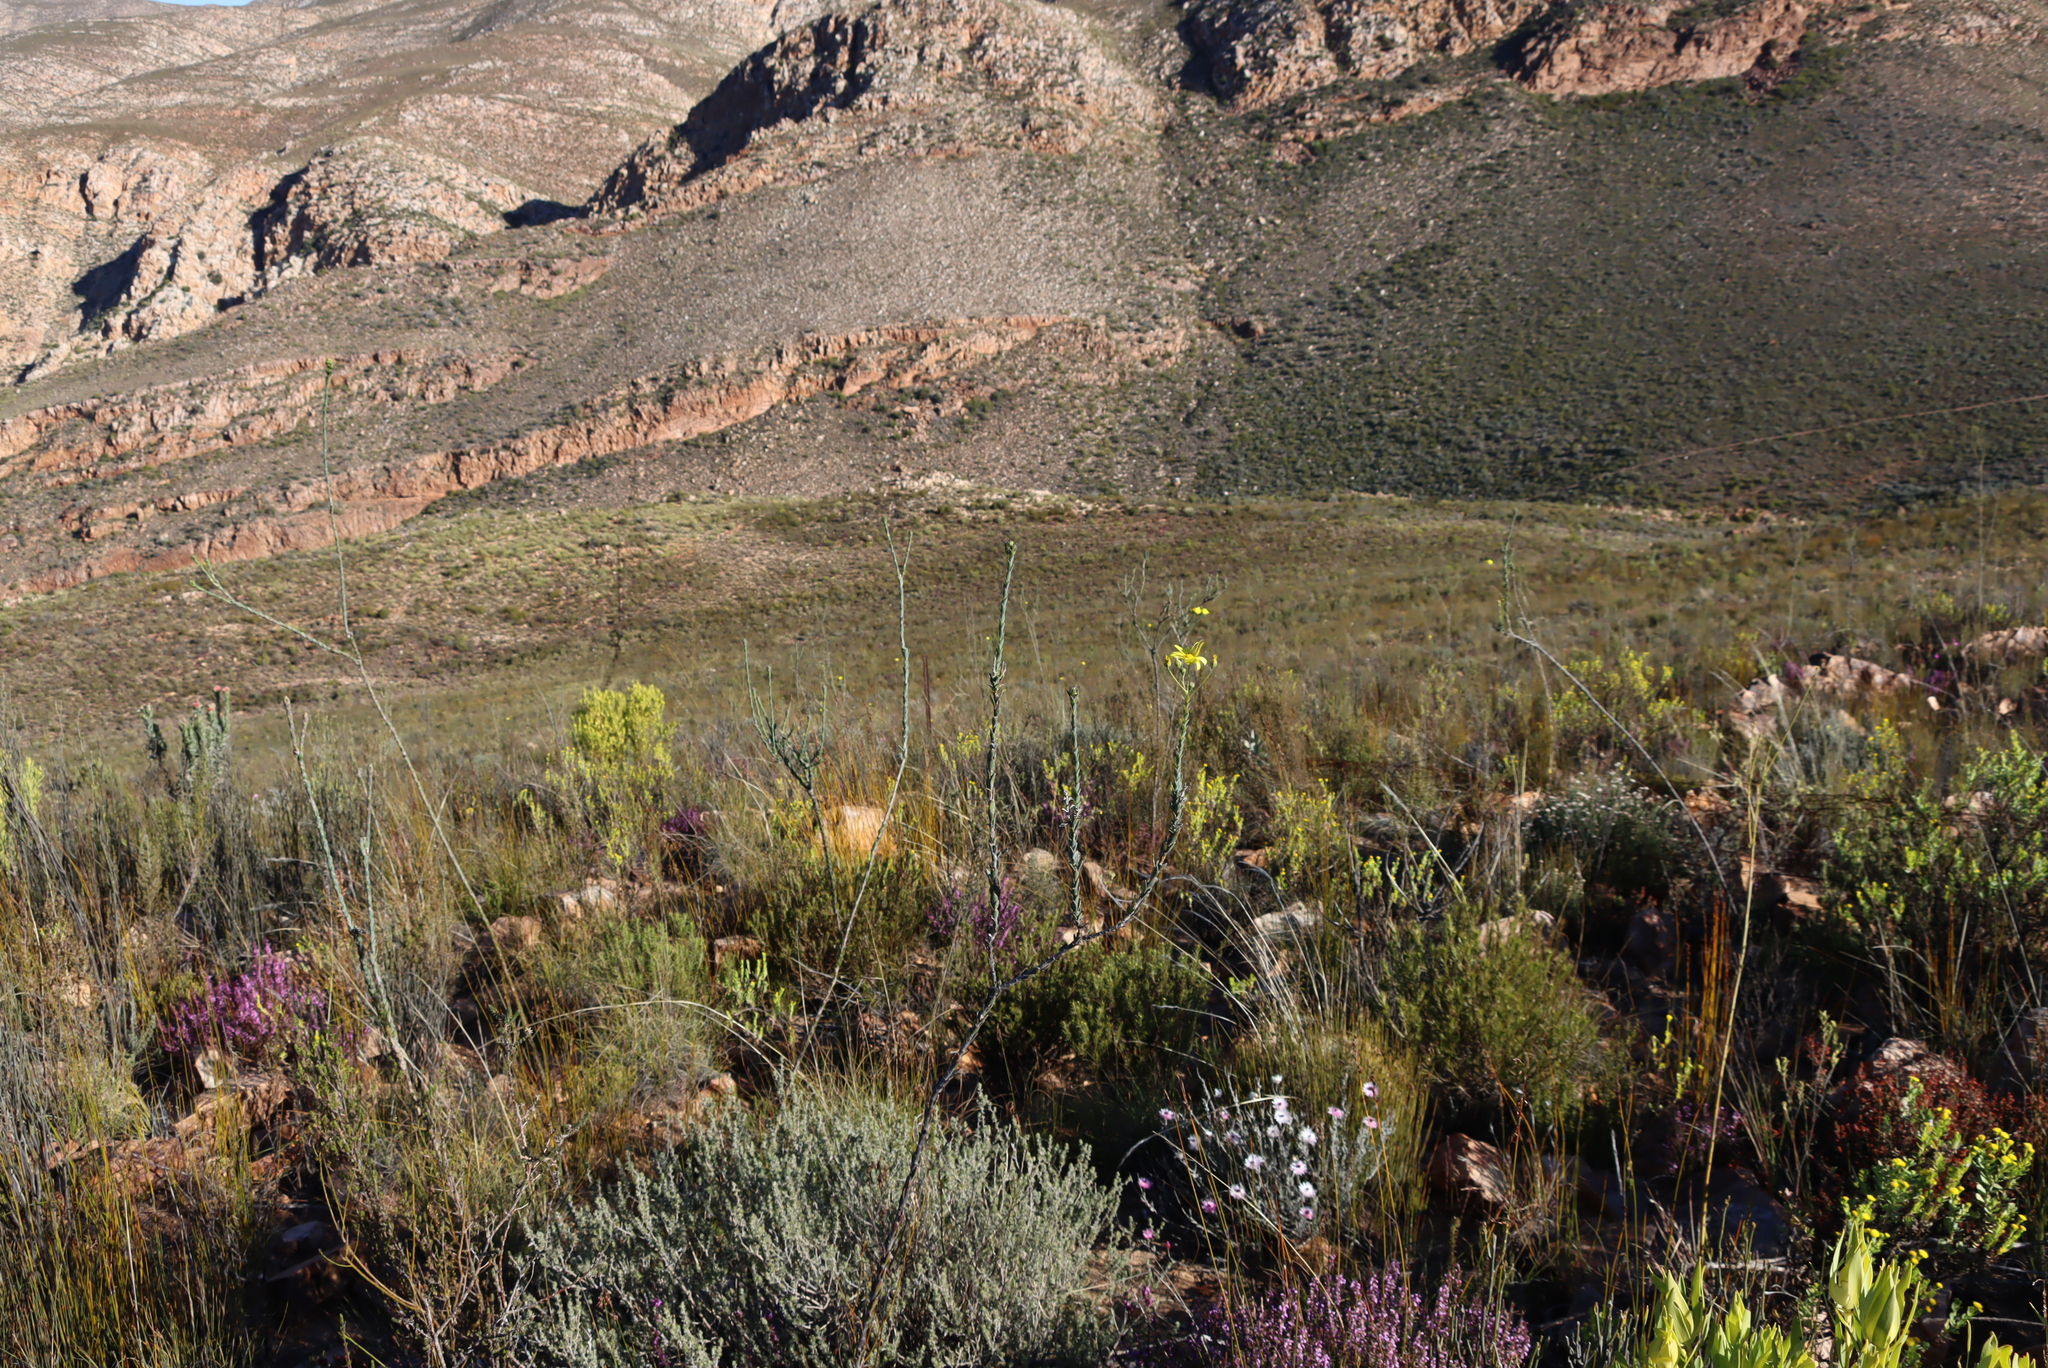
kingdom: Plantae
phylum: Tracheophyta
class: Magnoliopsida
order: Asterales
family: Asteraceae
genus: Euryops
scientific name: Euryops lateriflorus
